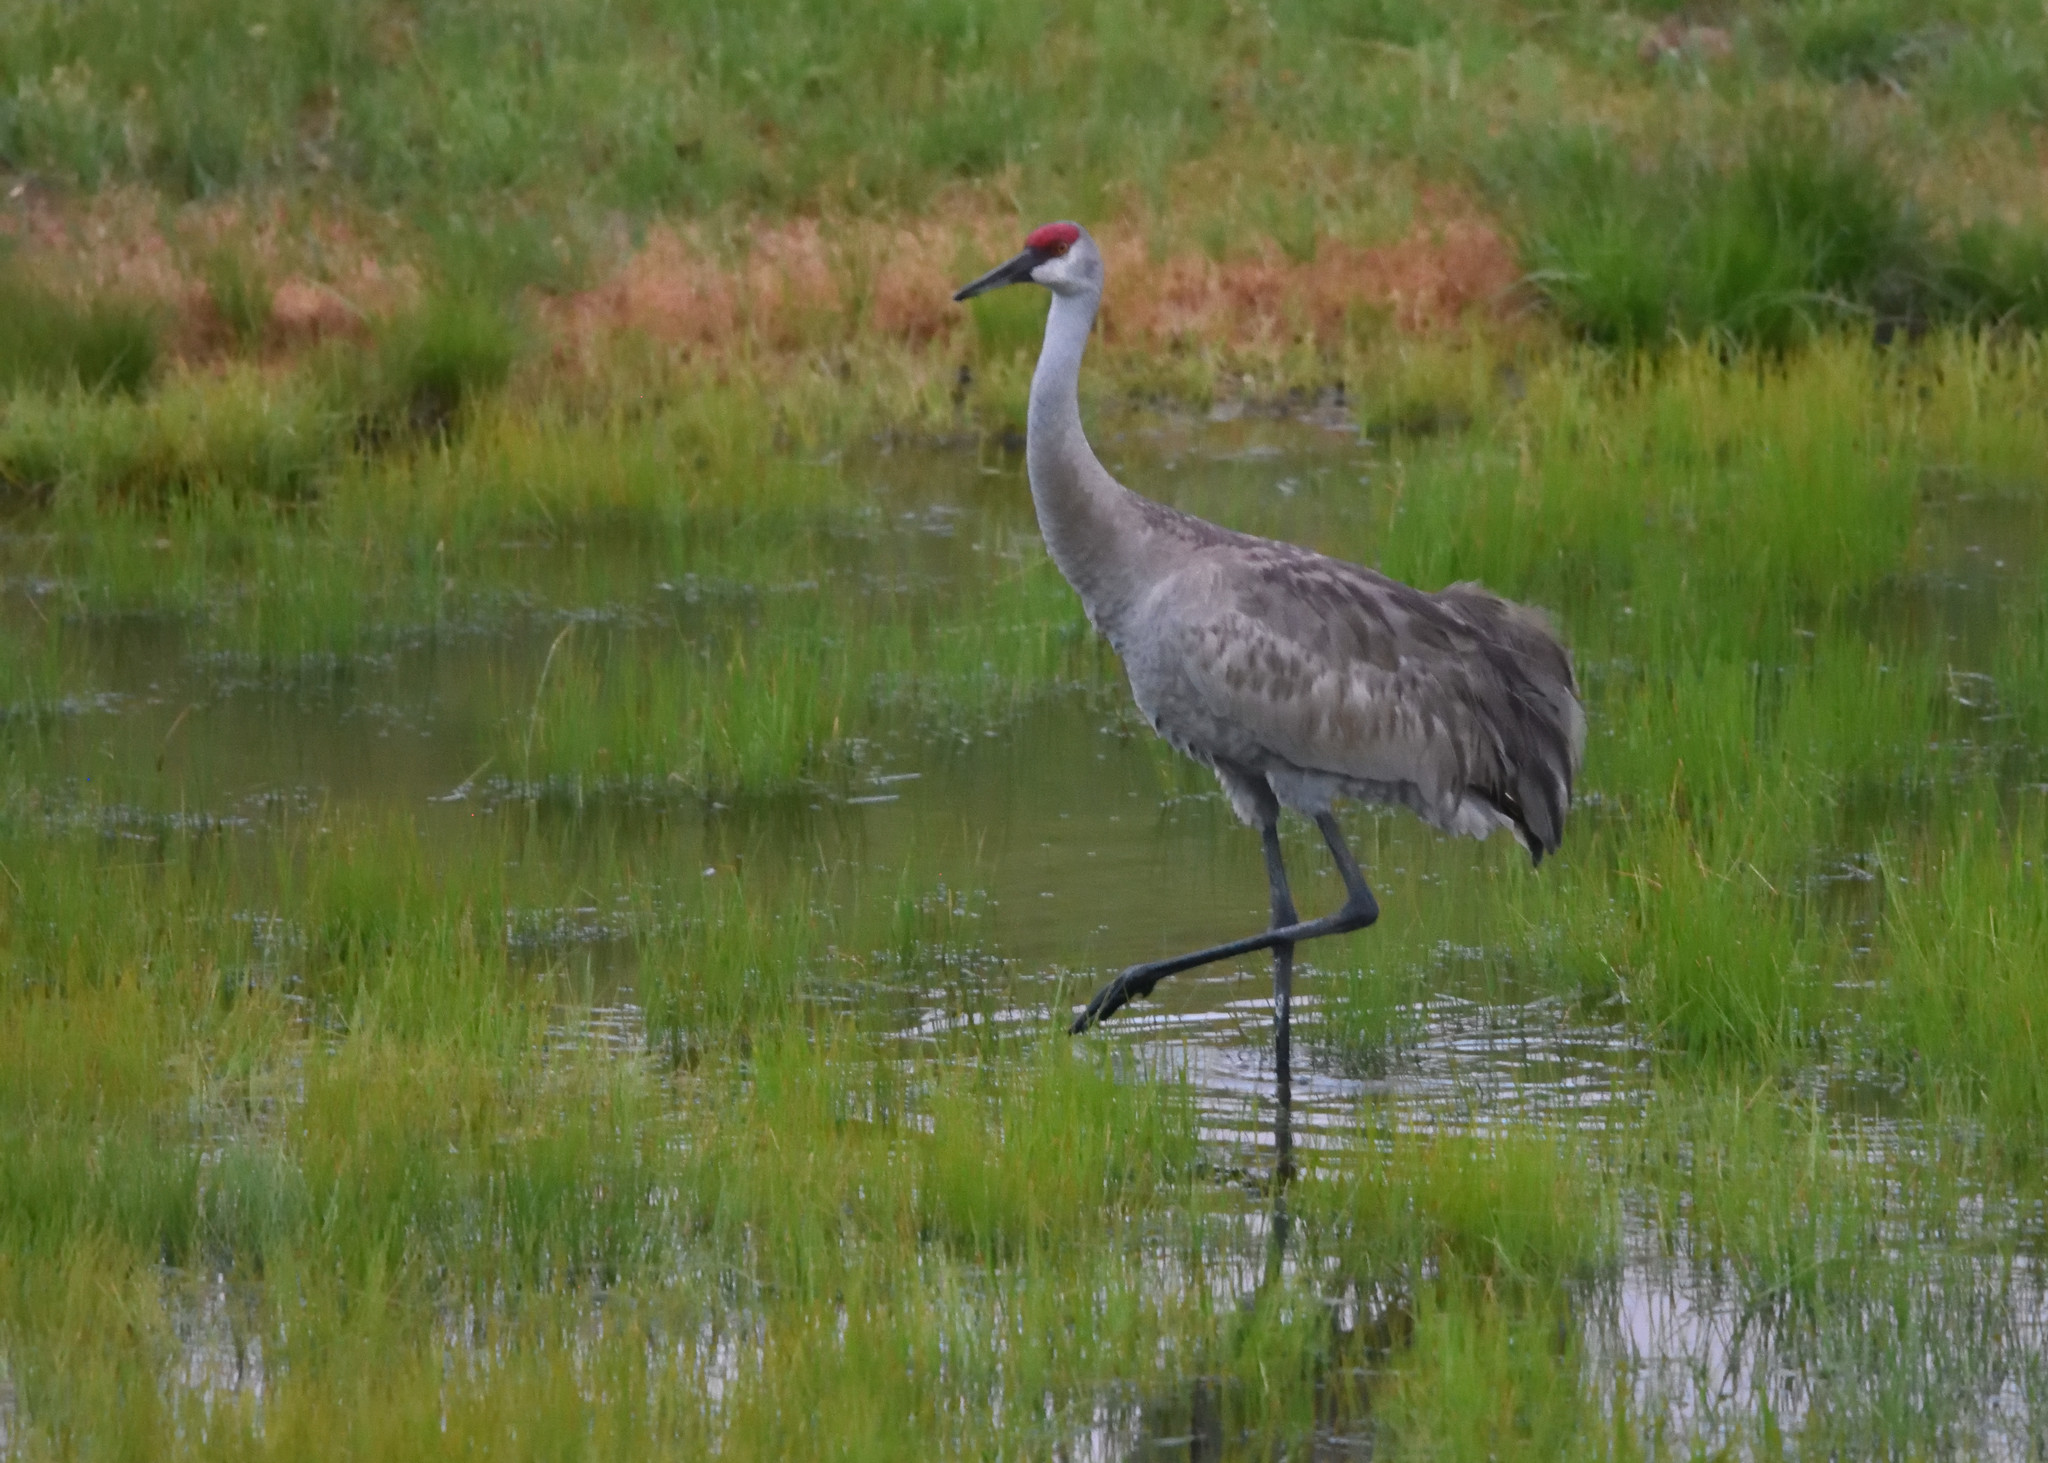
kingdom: Animalia
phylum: Chordata
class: Aves
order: Gruiformes
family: Gruidae
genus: Grus
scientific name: Grus canadensis
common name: Sandhill crane
